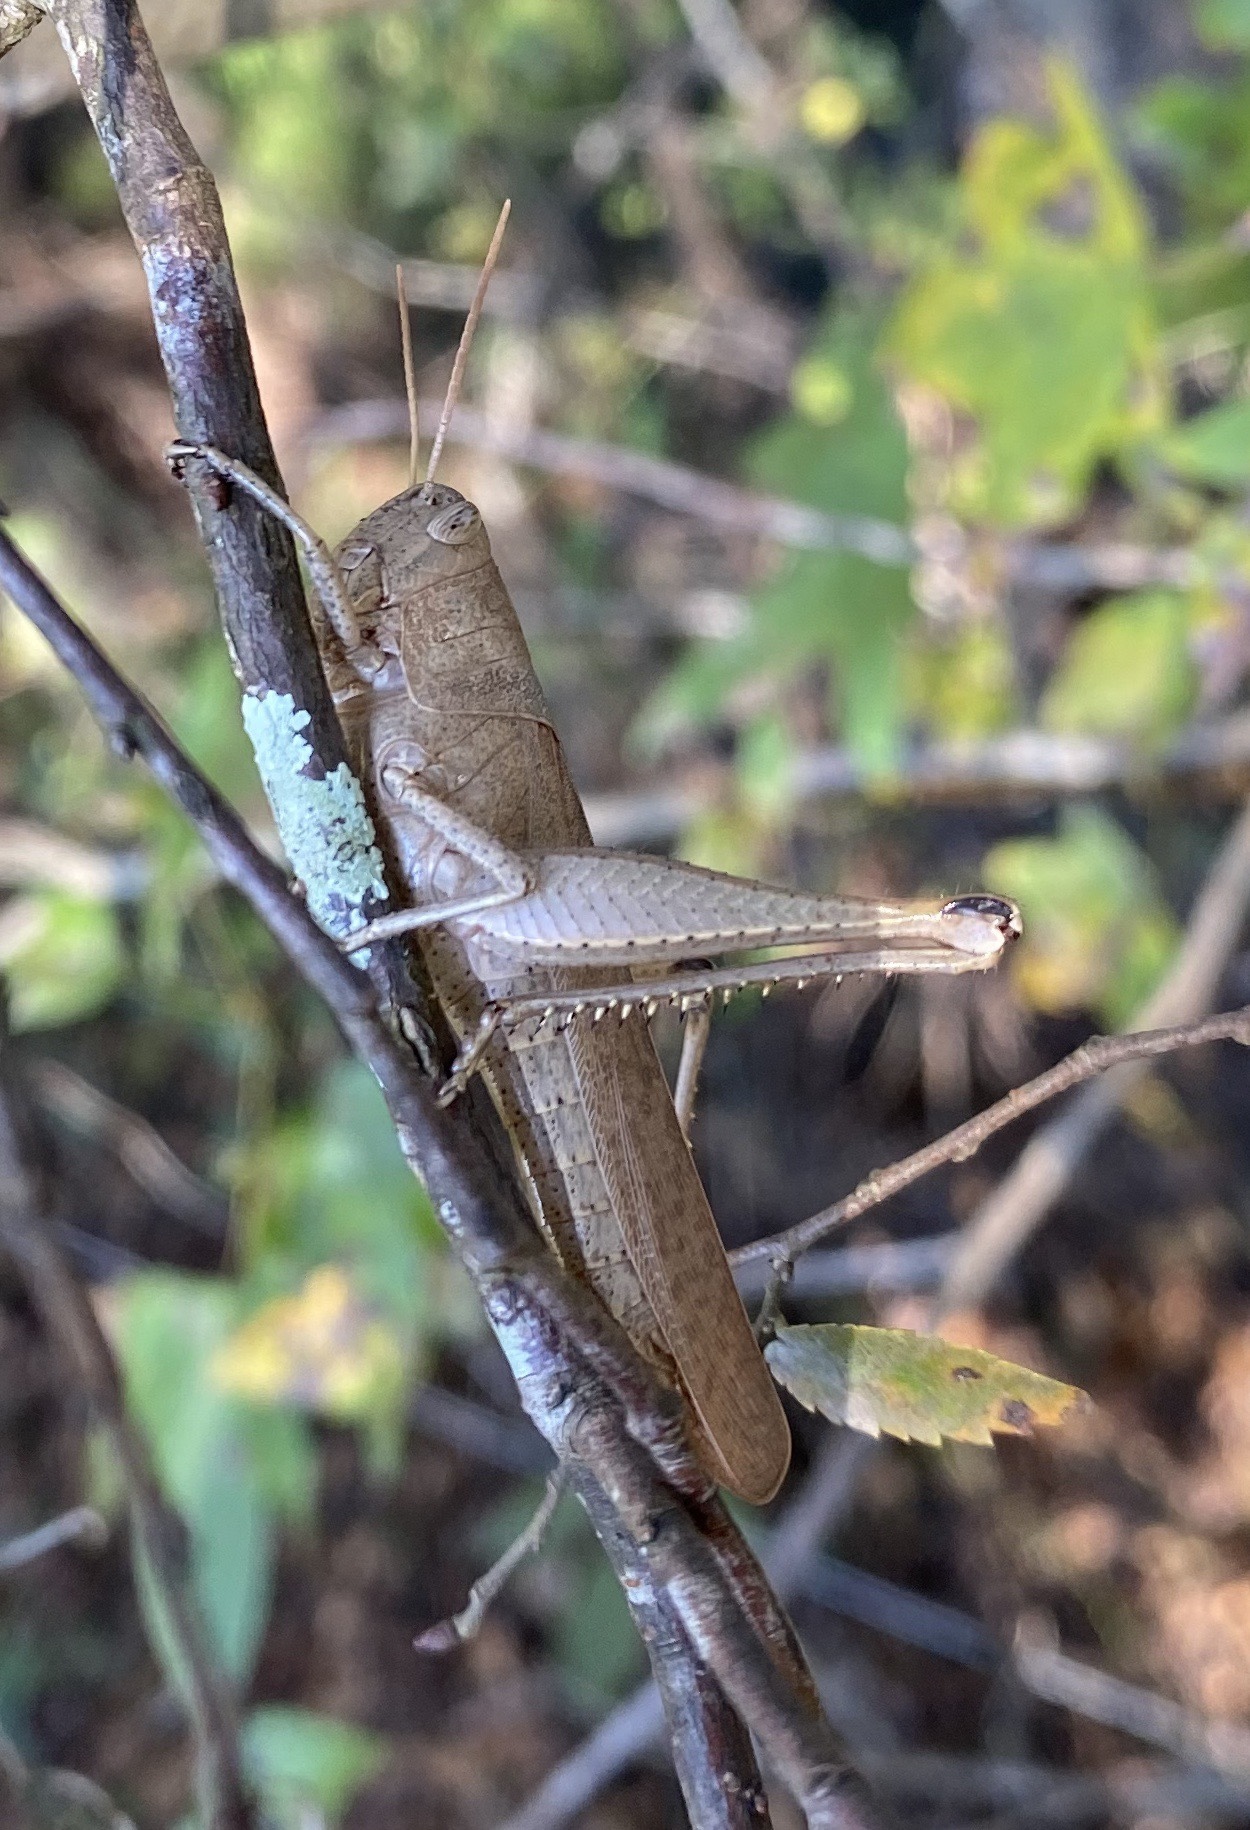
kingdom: Animalia
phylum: Arthropoda
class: Insecta
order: Orthoptera
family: Acrididae
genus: Schistocerca
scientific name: Schistocerca damnifica
